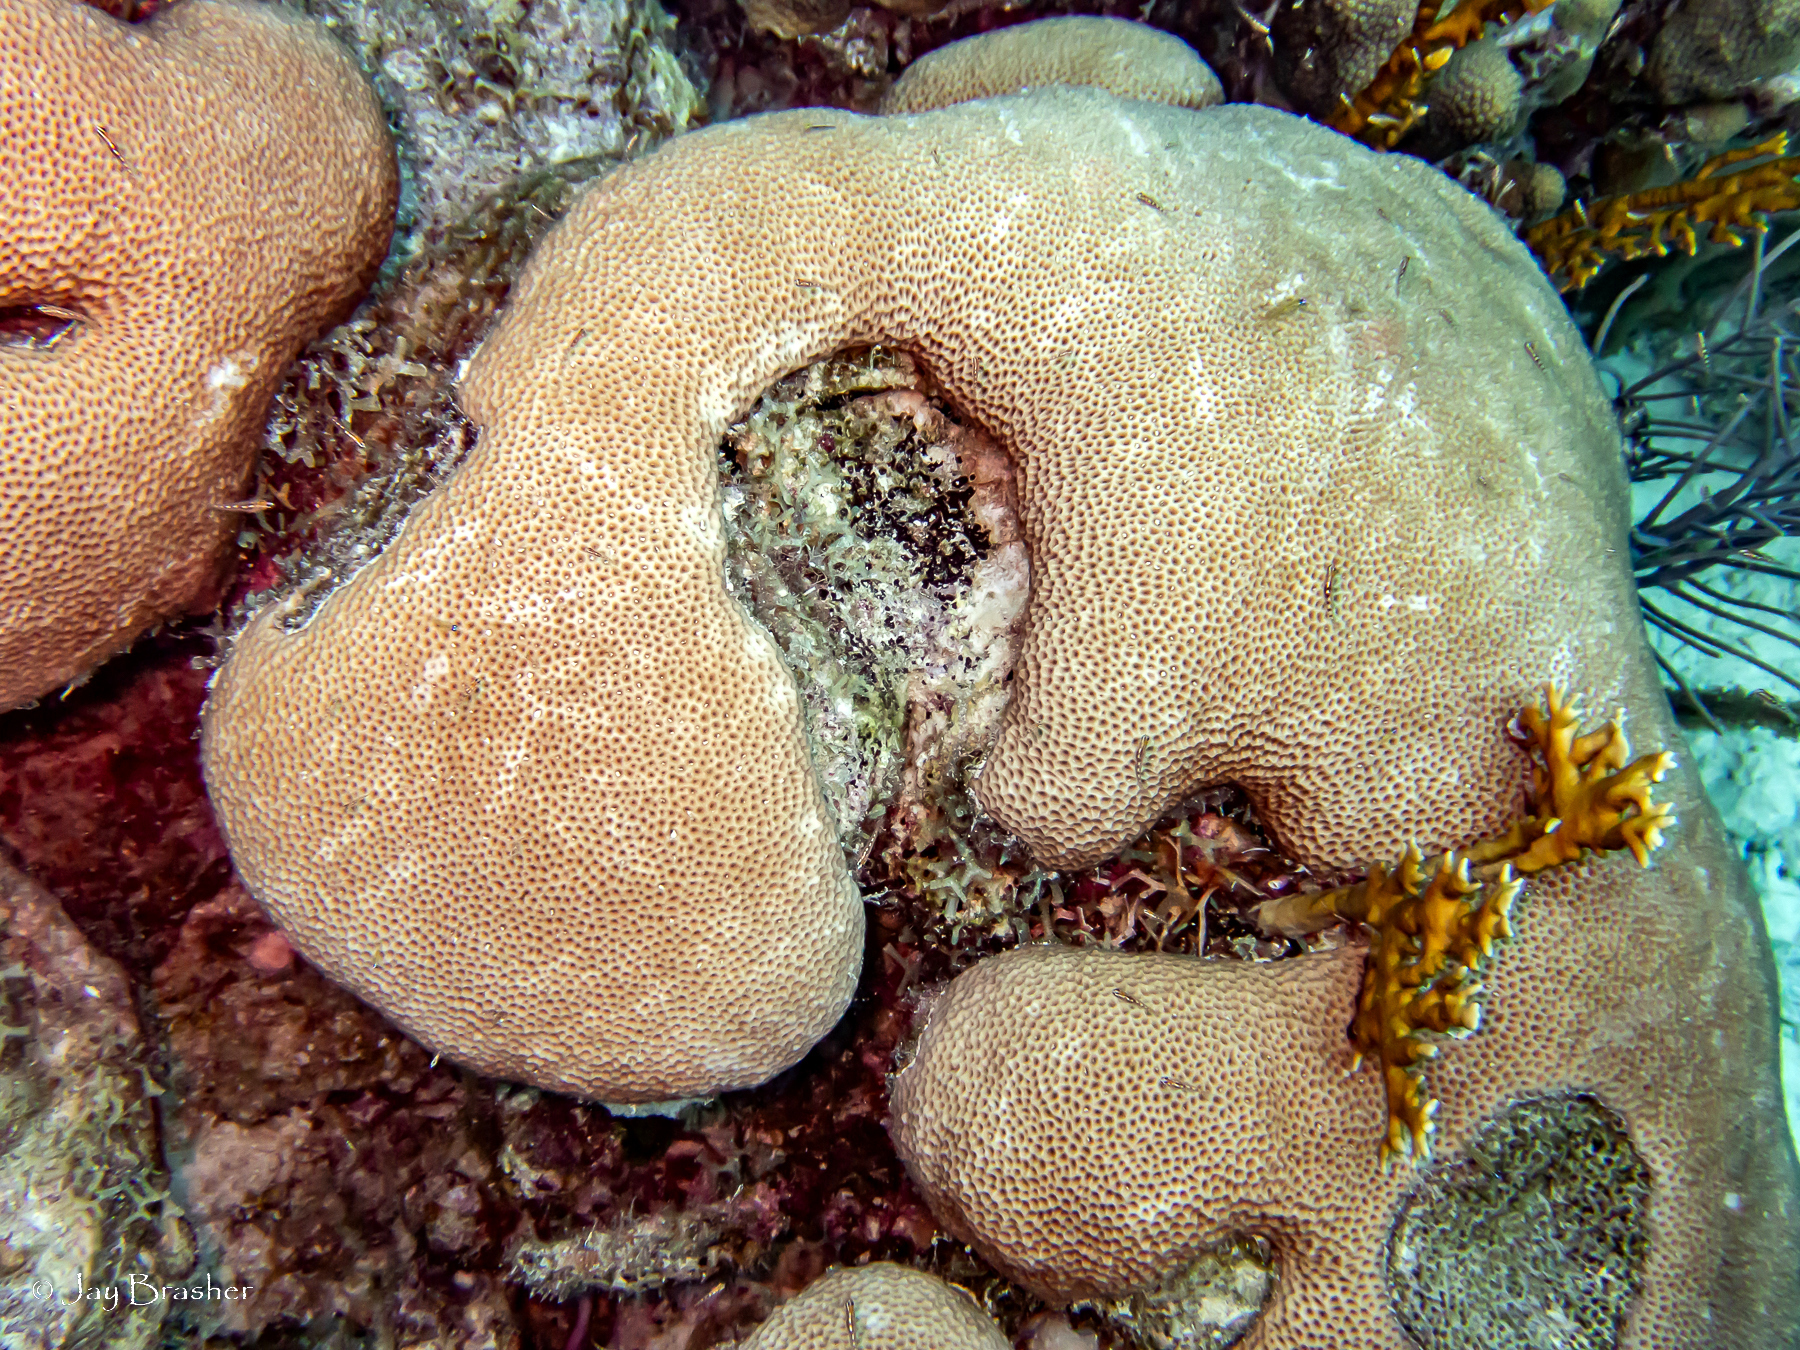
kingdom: Animalia
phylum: Cnidaria
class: Hydrozoa
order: Anthoathecata
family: Milleporidae
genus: Millepora
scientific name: Millepora alcicornis
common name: Branching fire coral
